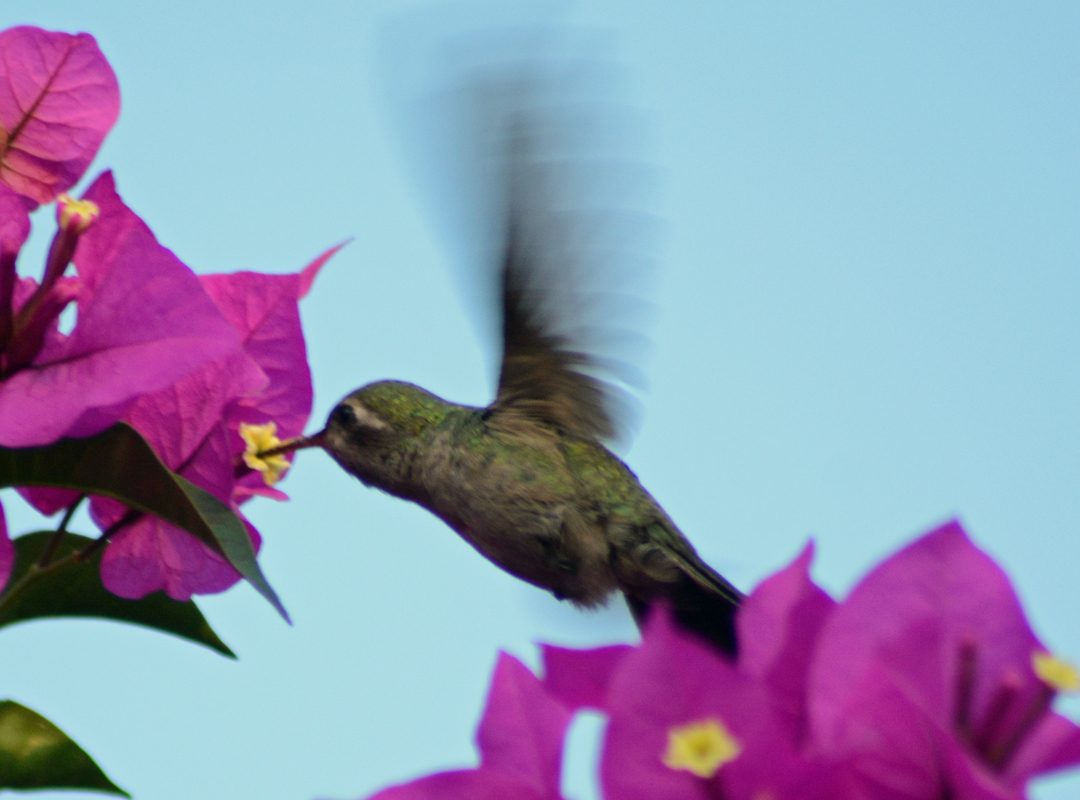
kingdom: Animalia
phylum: Chordata
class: Aves
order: Apodiformes
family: Trochilidae
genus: Cynanthus
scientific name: Cynanthus latirostris
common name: Broad-billed hummingbird
